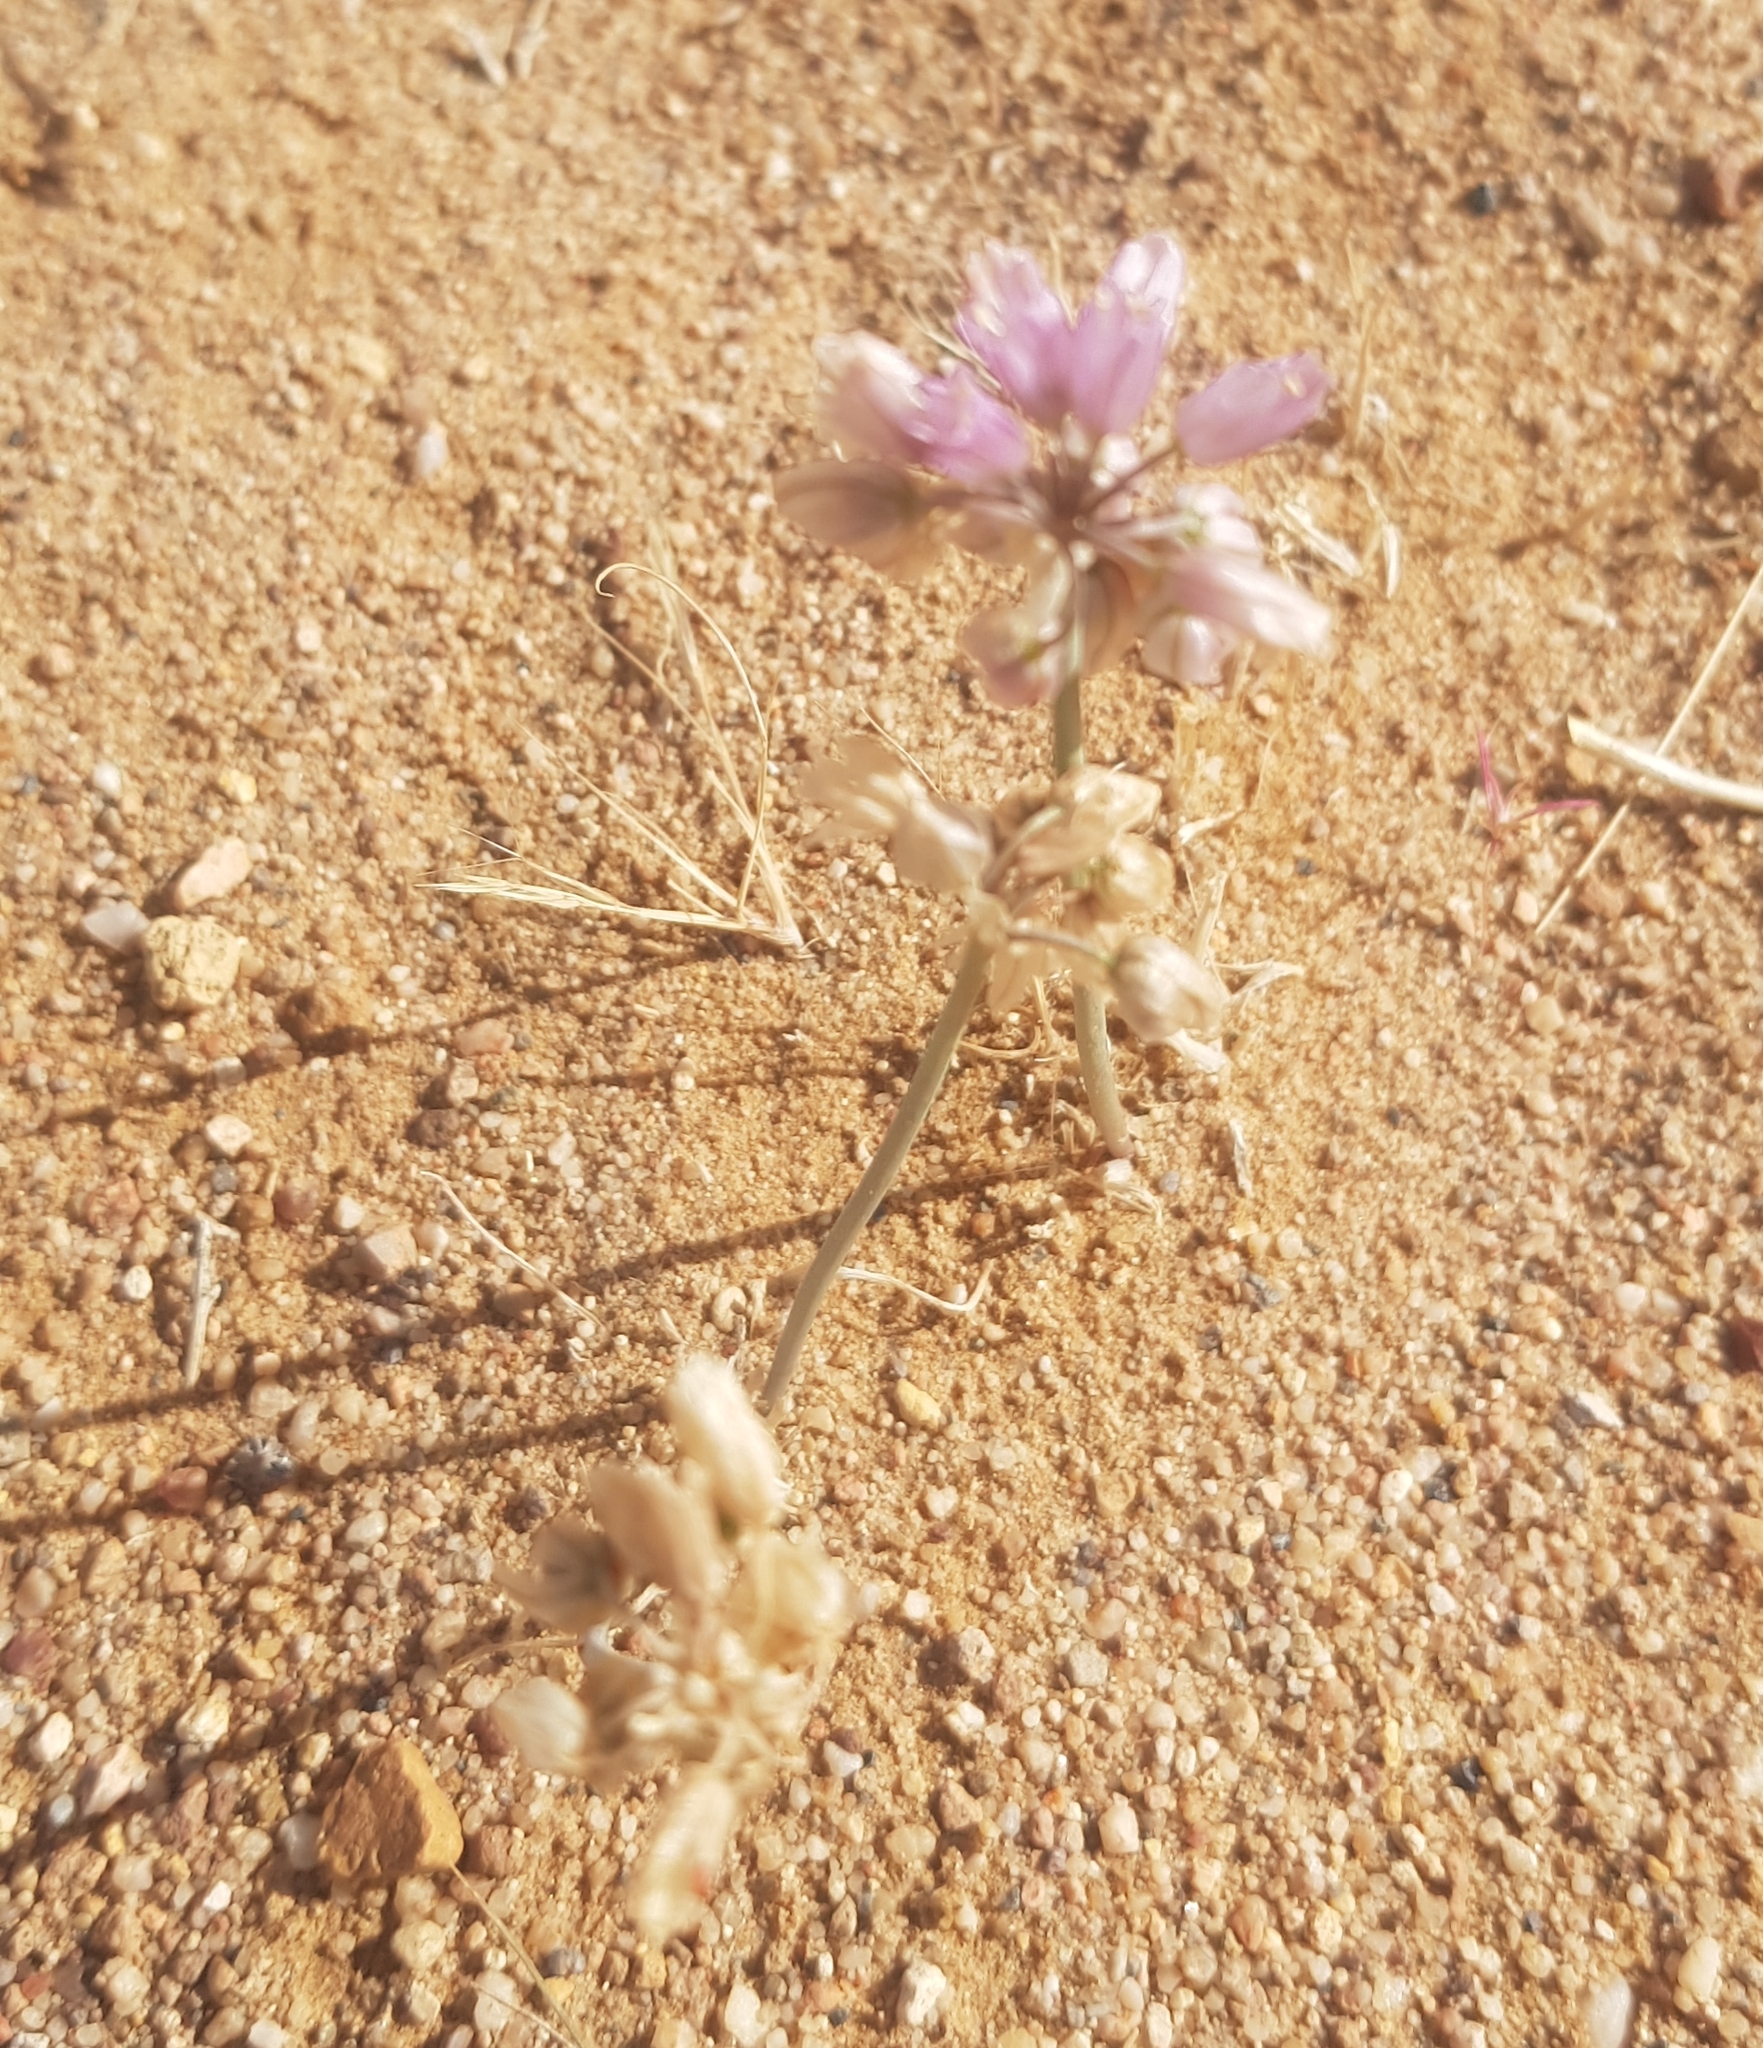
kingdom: Plantae
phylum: Tracheophyta
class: Liliopsida
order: Asparagales
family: Amaryllidaceae
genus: Allium
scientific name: Allium mongolicum
